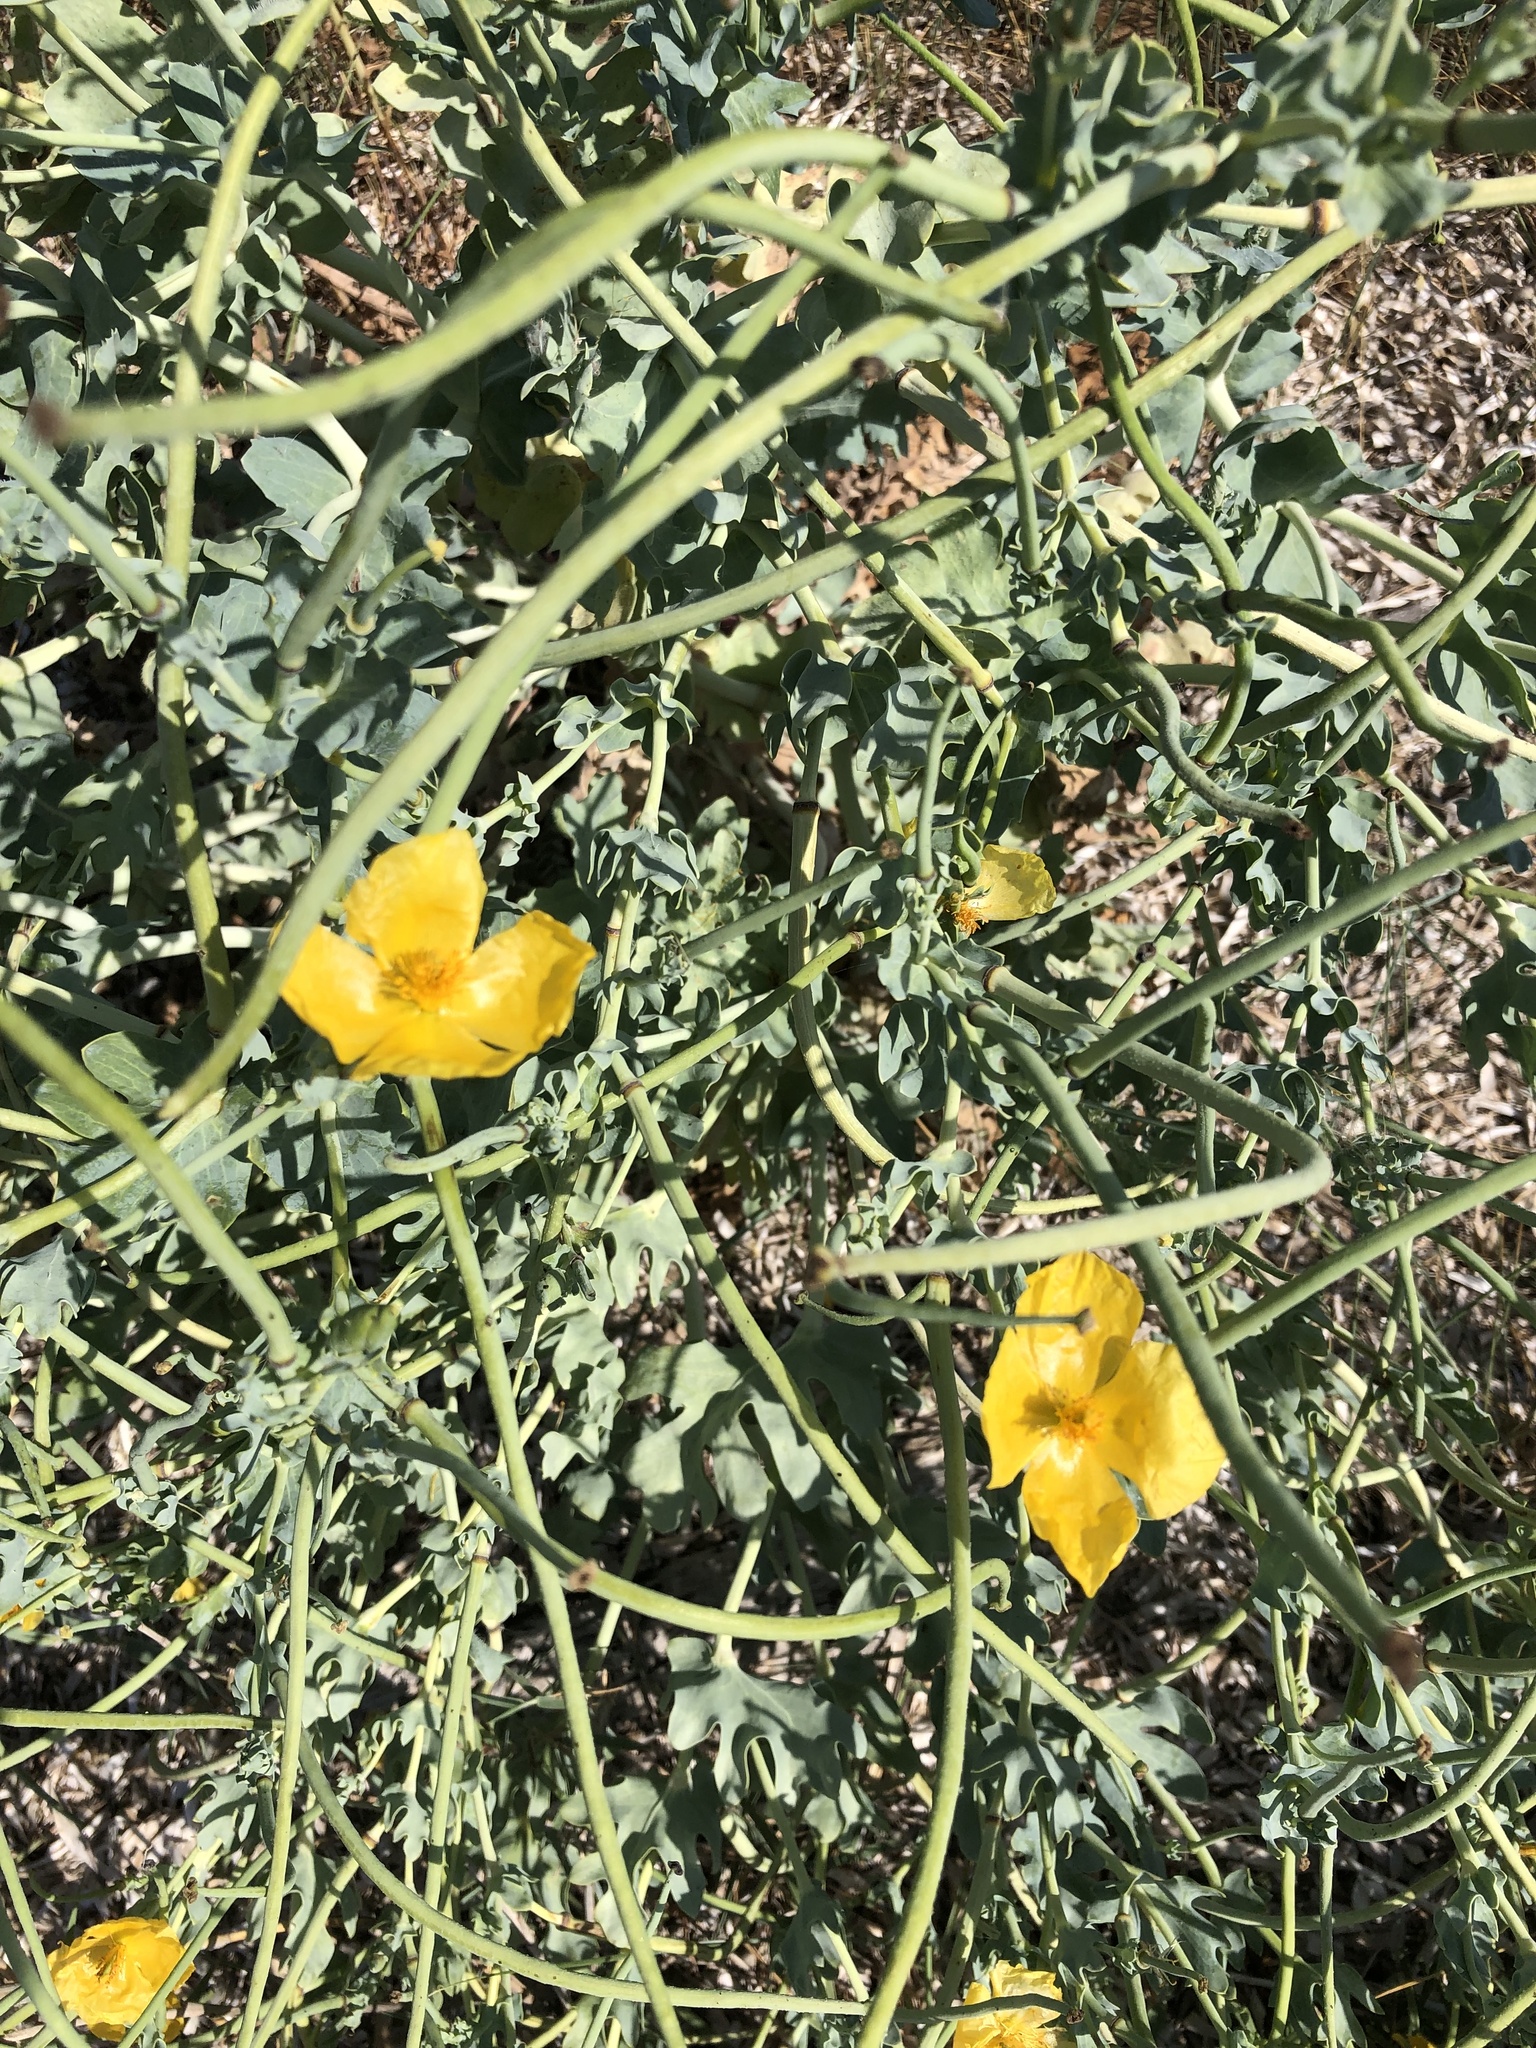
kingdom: Plantae
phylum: Tracheophyta
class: Magnoliopsida
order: Ranunculales
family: Papaveraceae
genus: Glaucium
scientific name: Glaucium flavum
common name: Yellow horned-poppy
